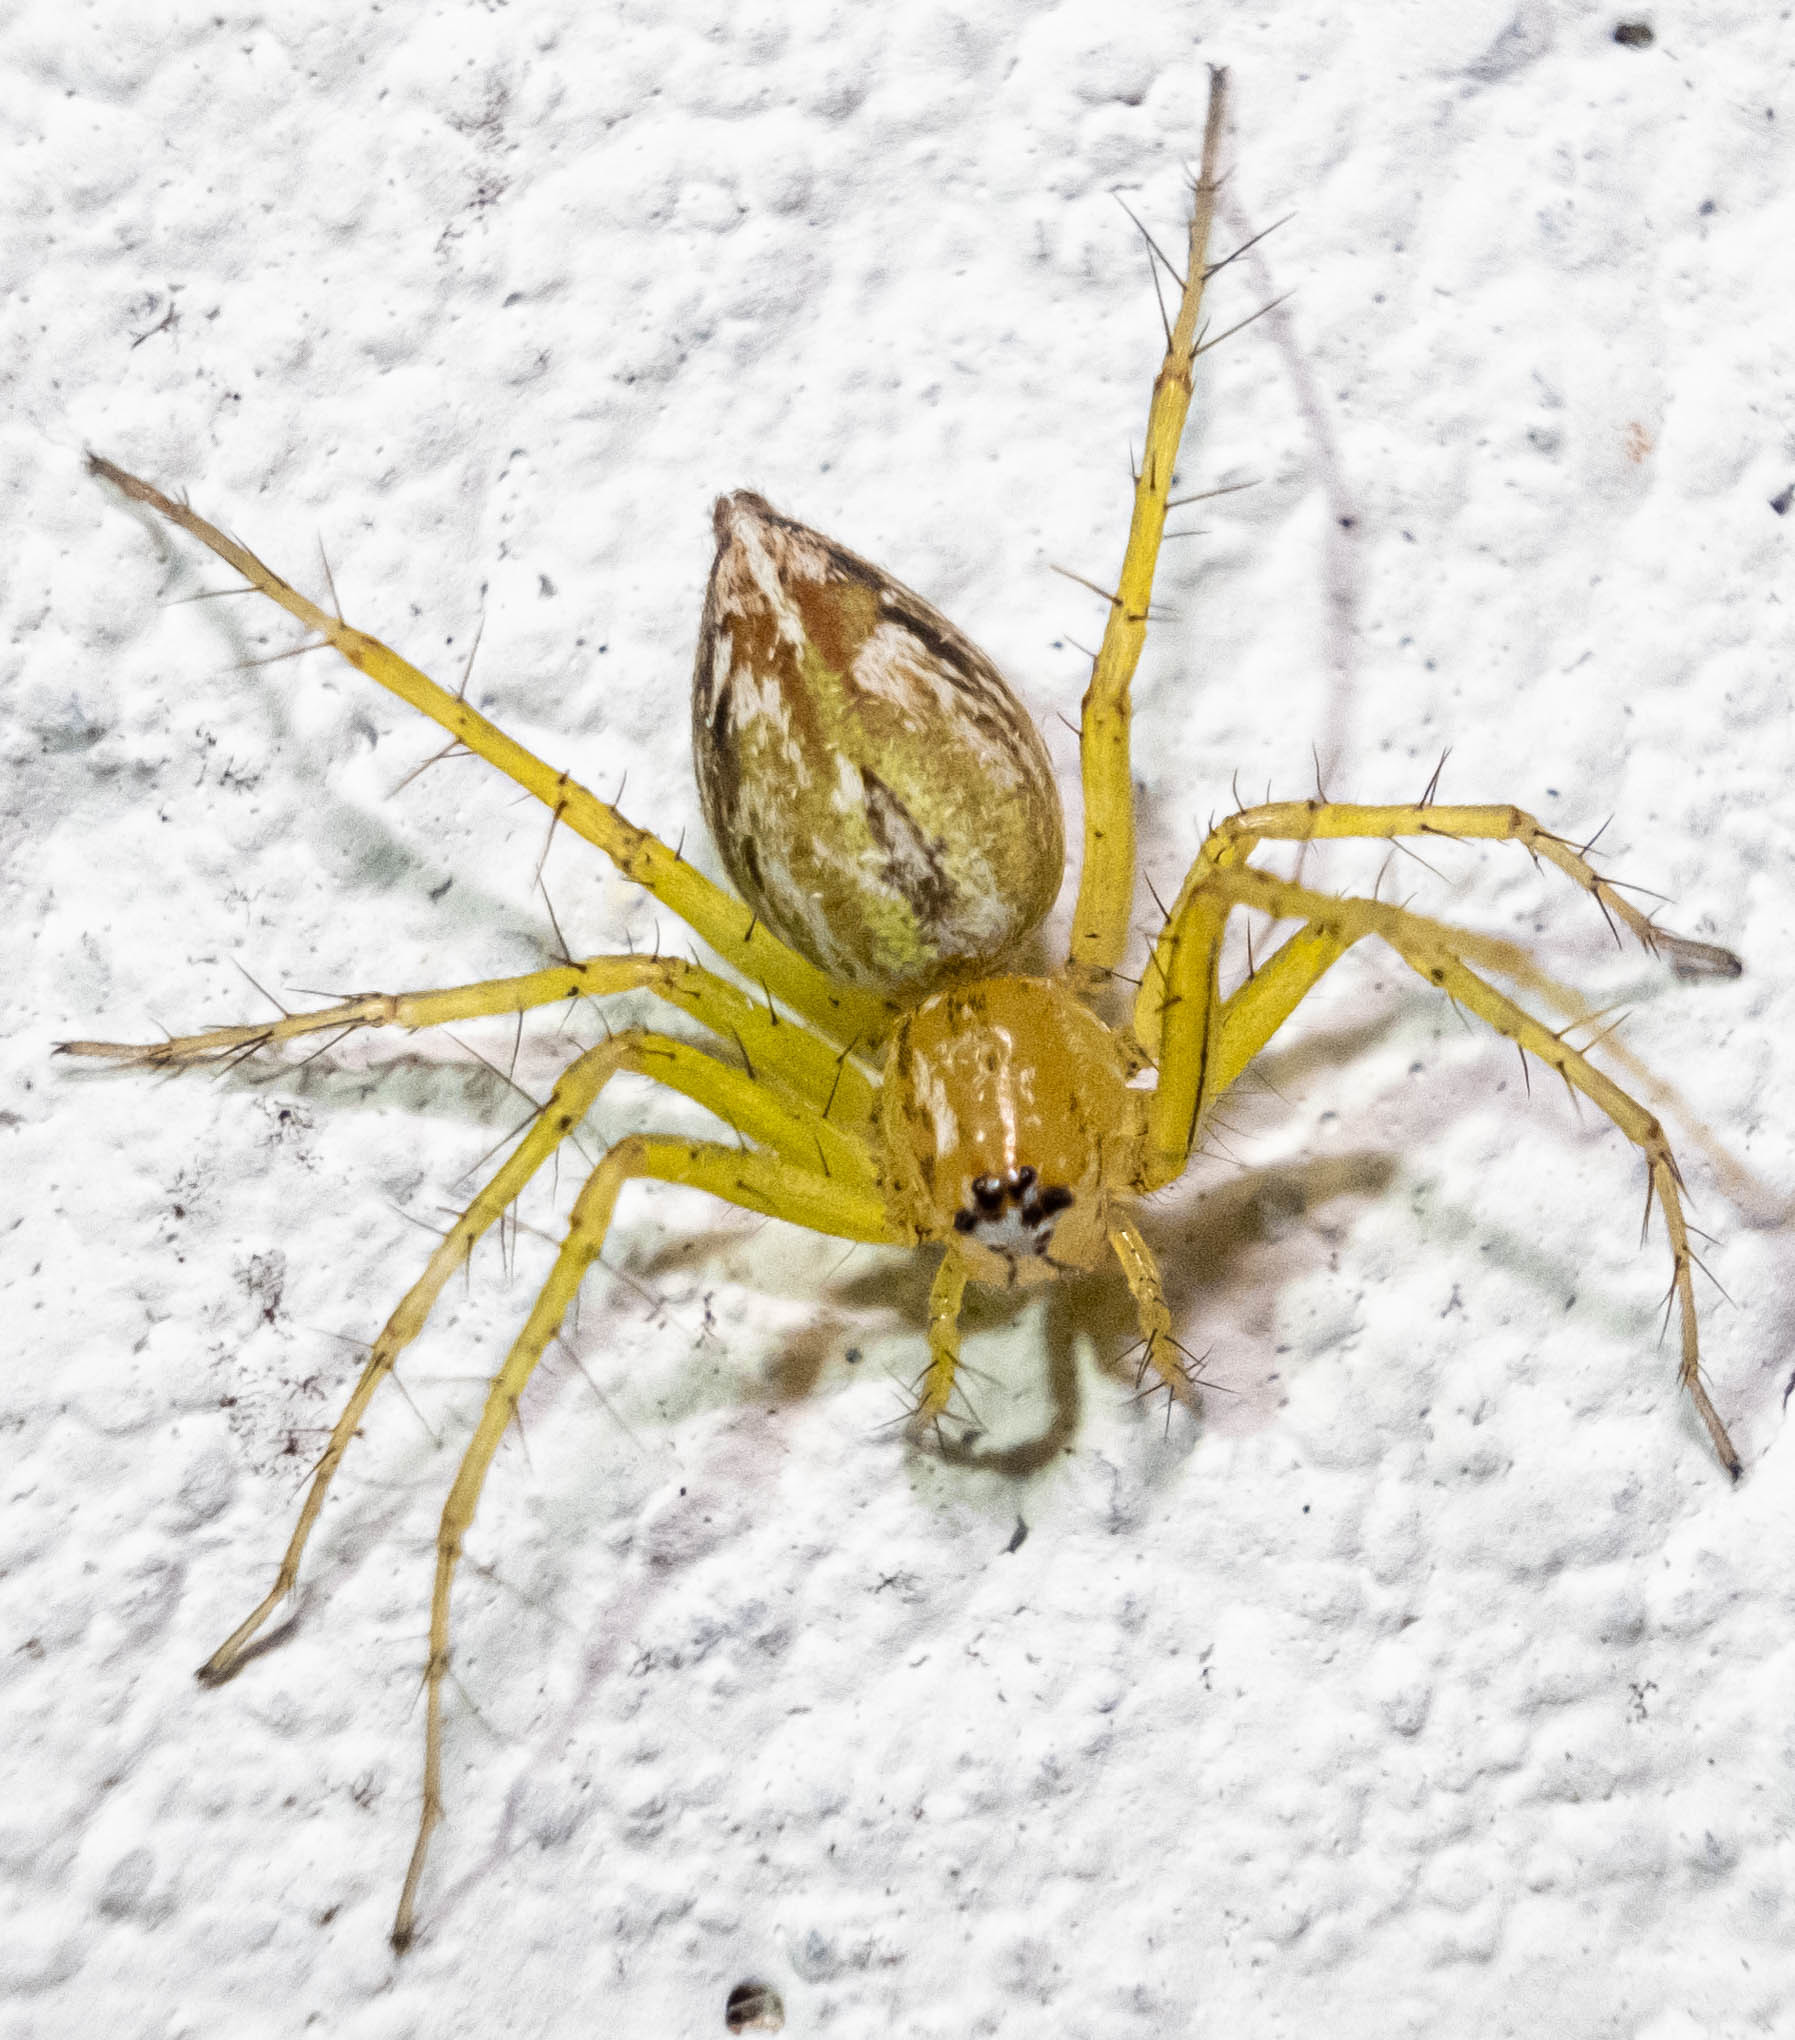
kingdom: Animalia
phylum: Arthropoda
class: Arachnida
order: Araneae
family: Oxyopidae
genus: Oxyopes
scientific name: Oxyopes salticus
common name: Lynx spiders
